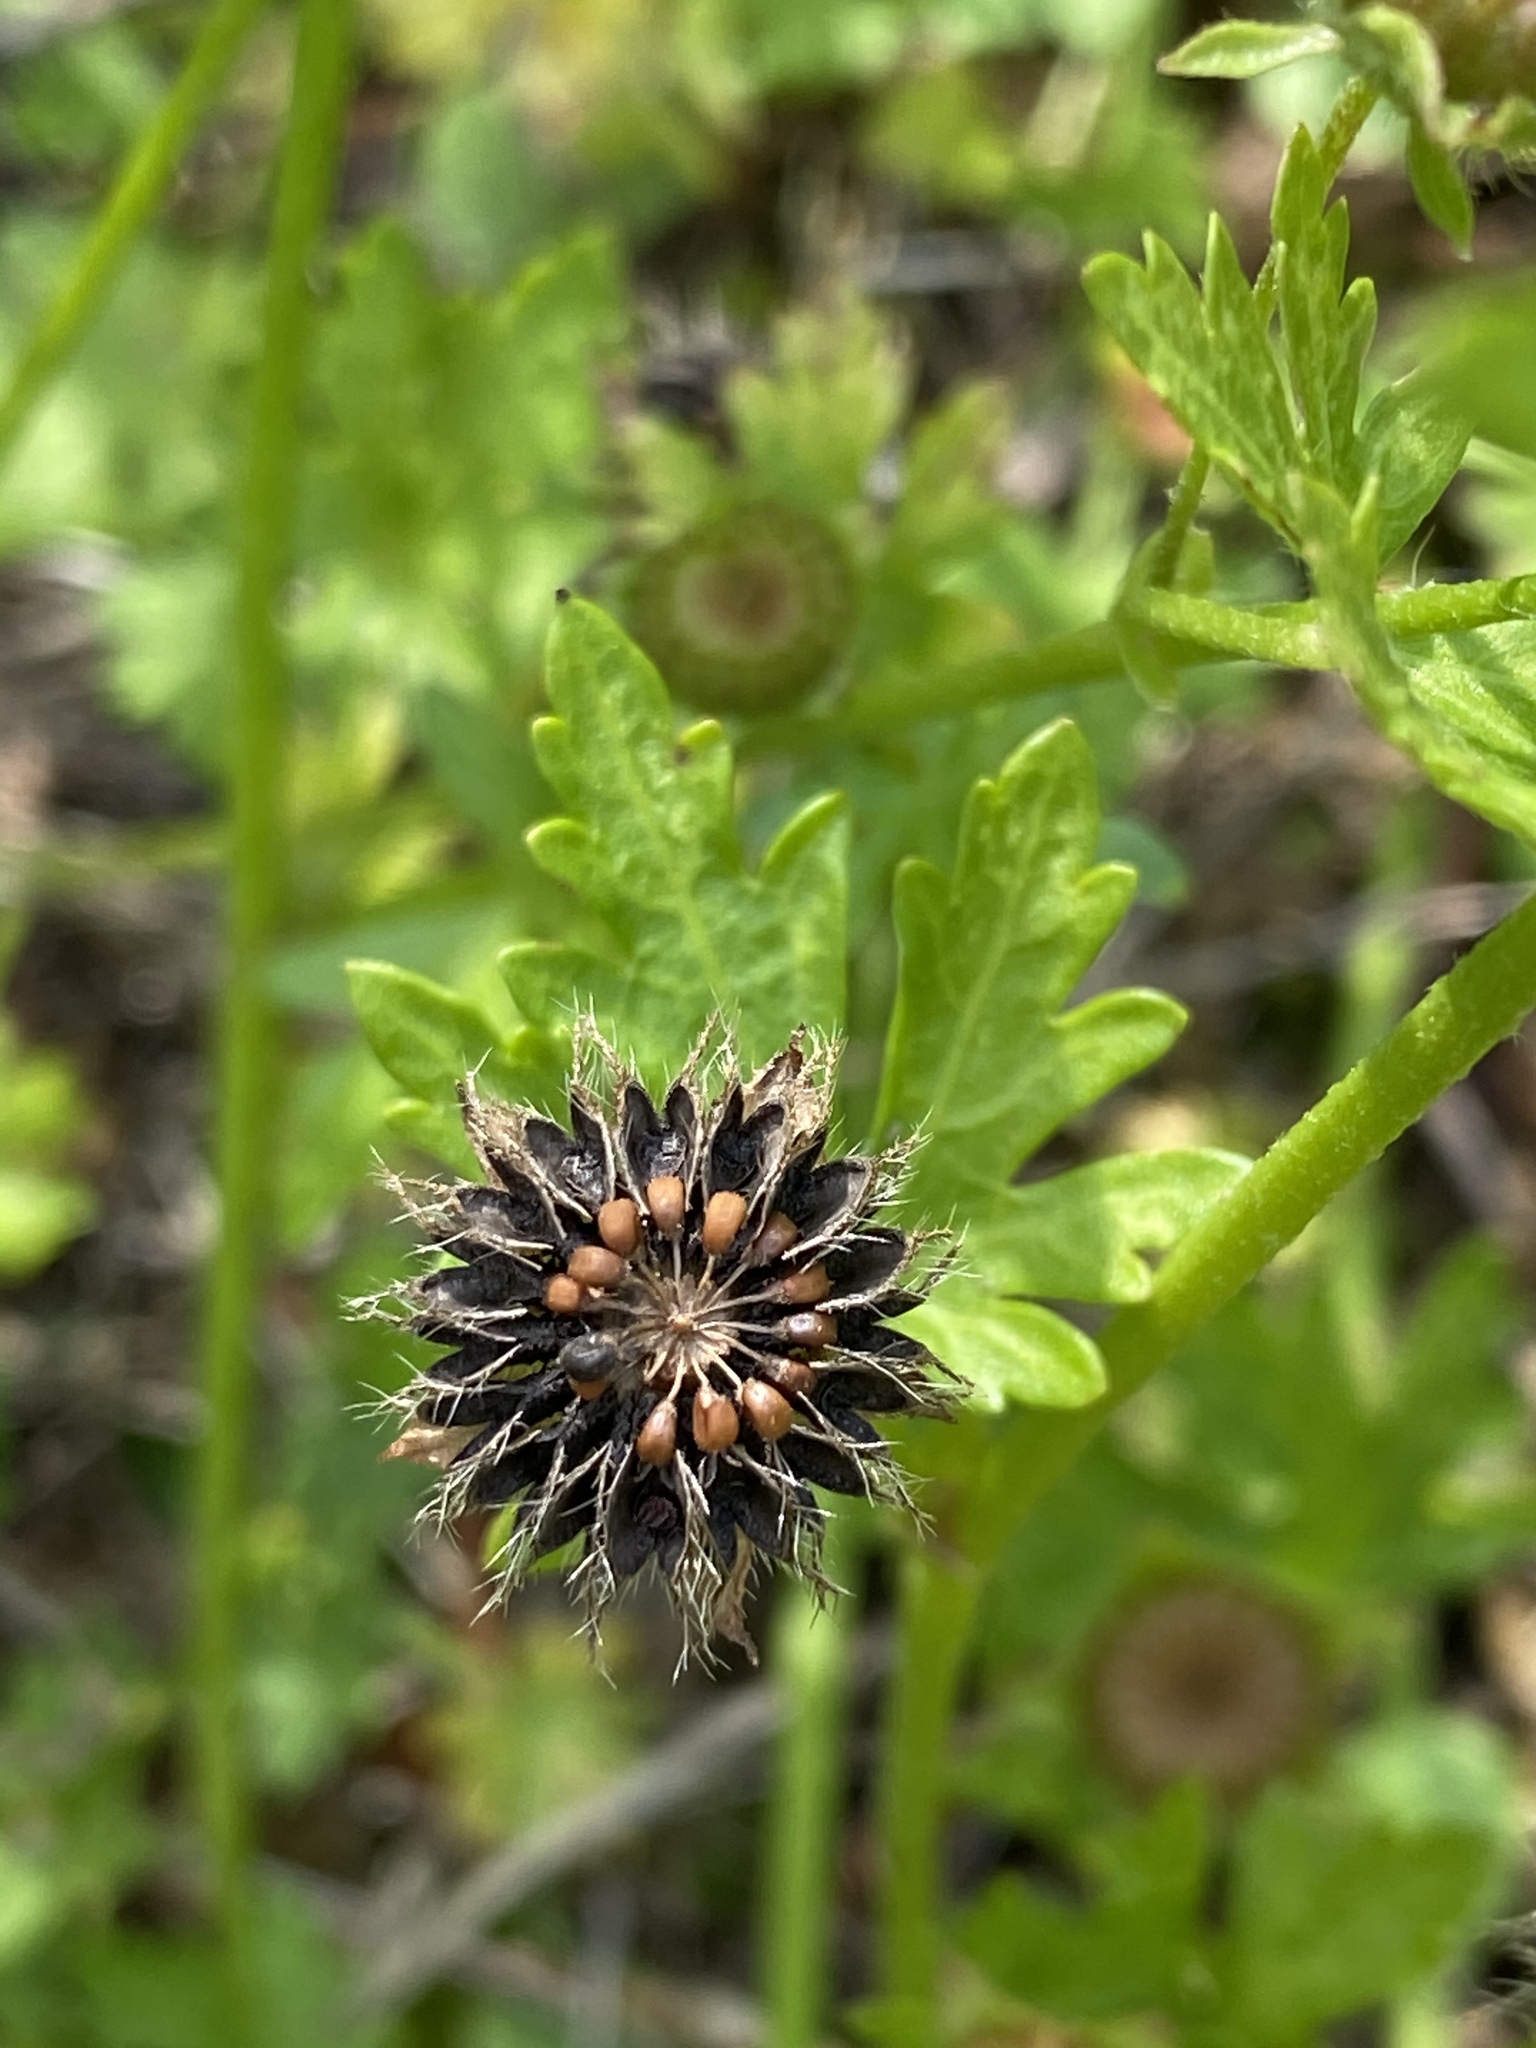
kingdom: Plantae
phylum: Tracheophyta
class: Magnoliopsida
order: Malvales
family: Malvaceae
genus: Modiola
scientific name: Modiola caroliniana
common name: Carolina bristlemallow
